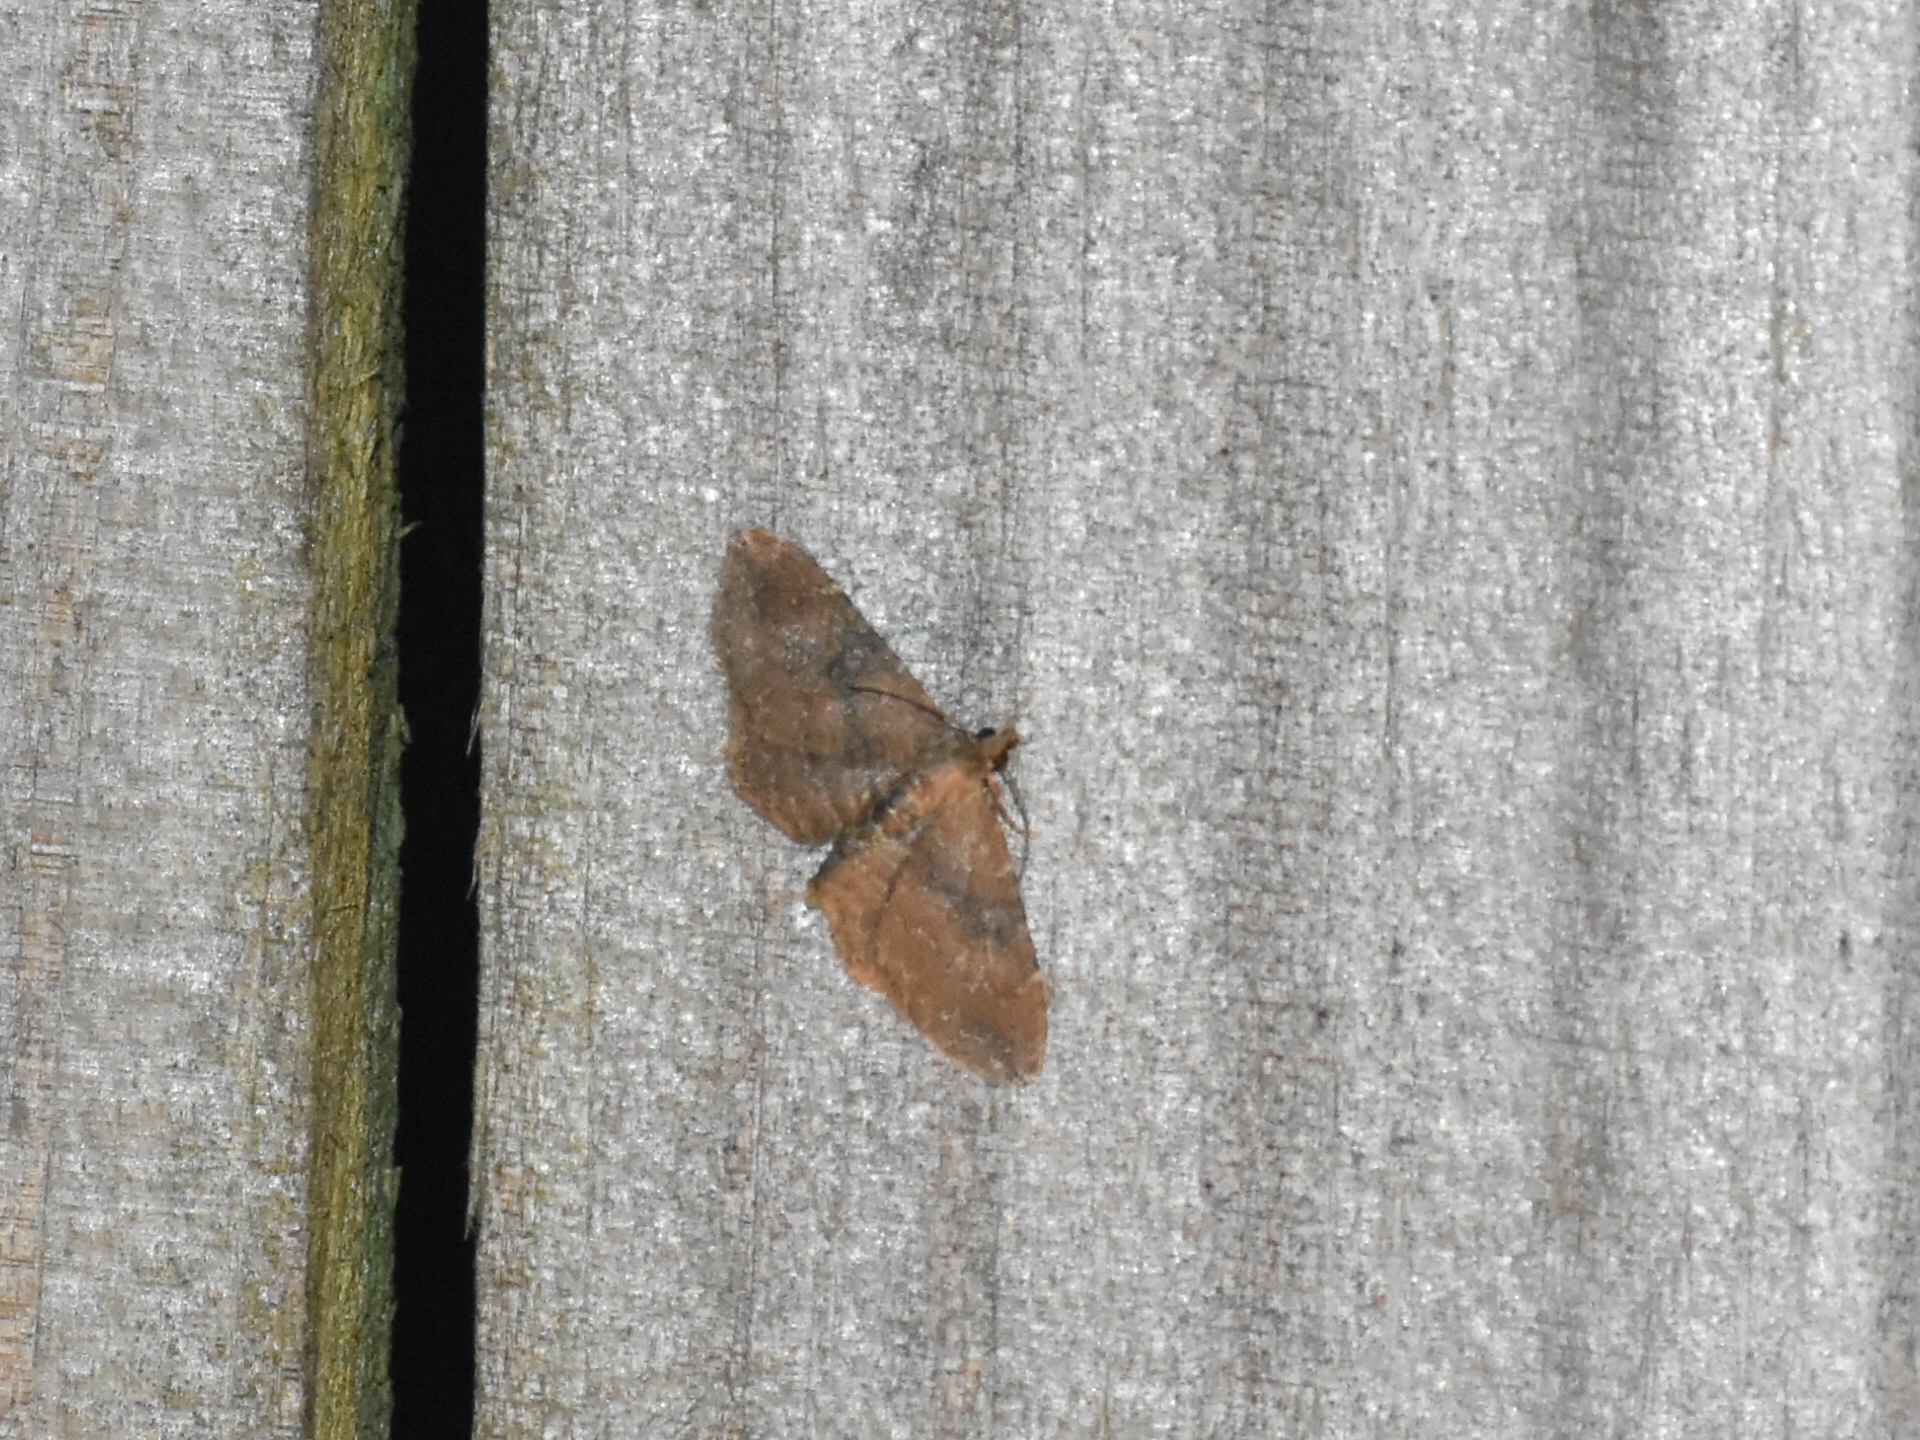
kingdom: Animalia
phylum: Arthropoda
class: Insecta
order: Lepidoptera
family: Geometridae
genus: Orthonama
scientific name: Orthonama obstipata
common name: The gem
